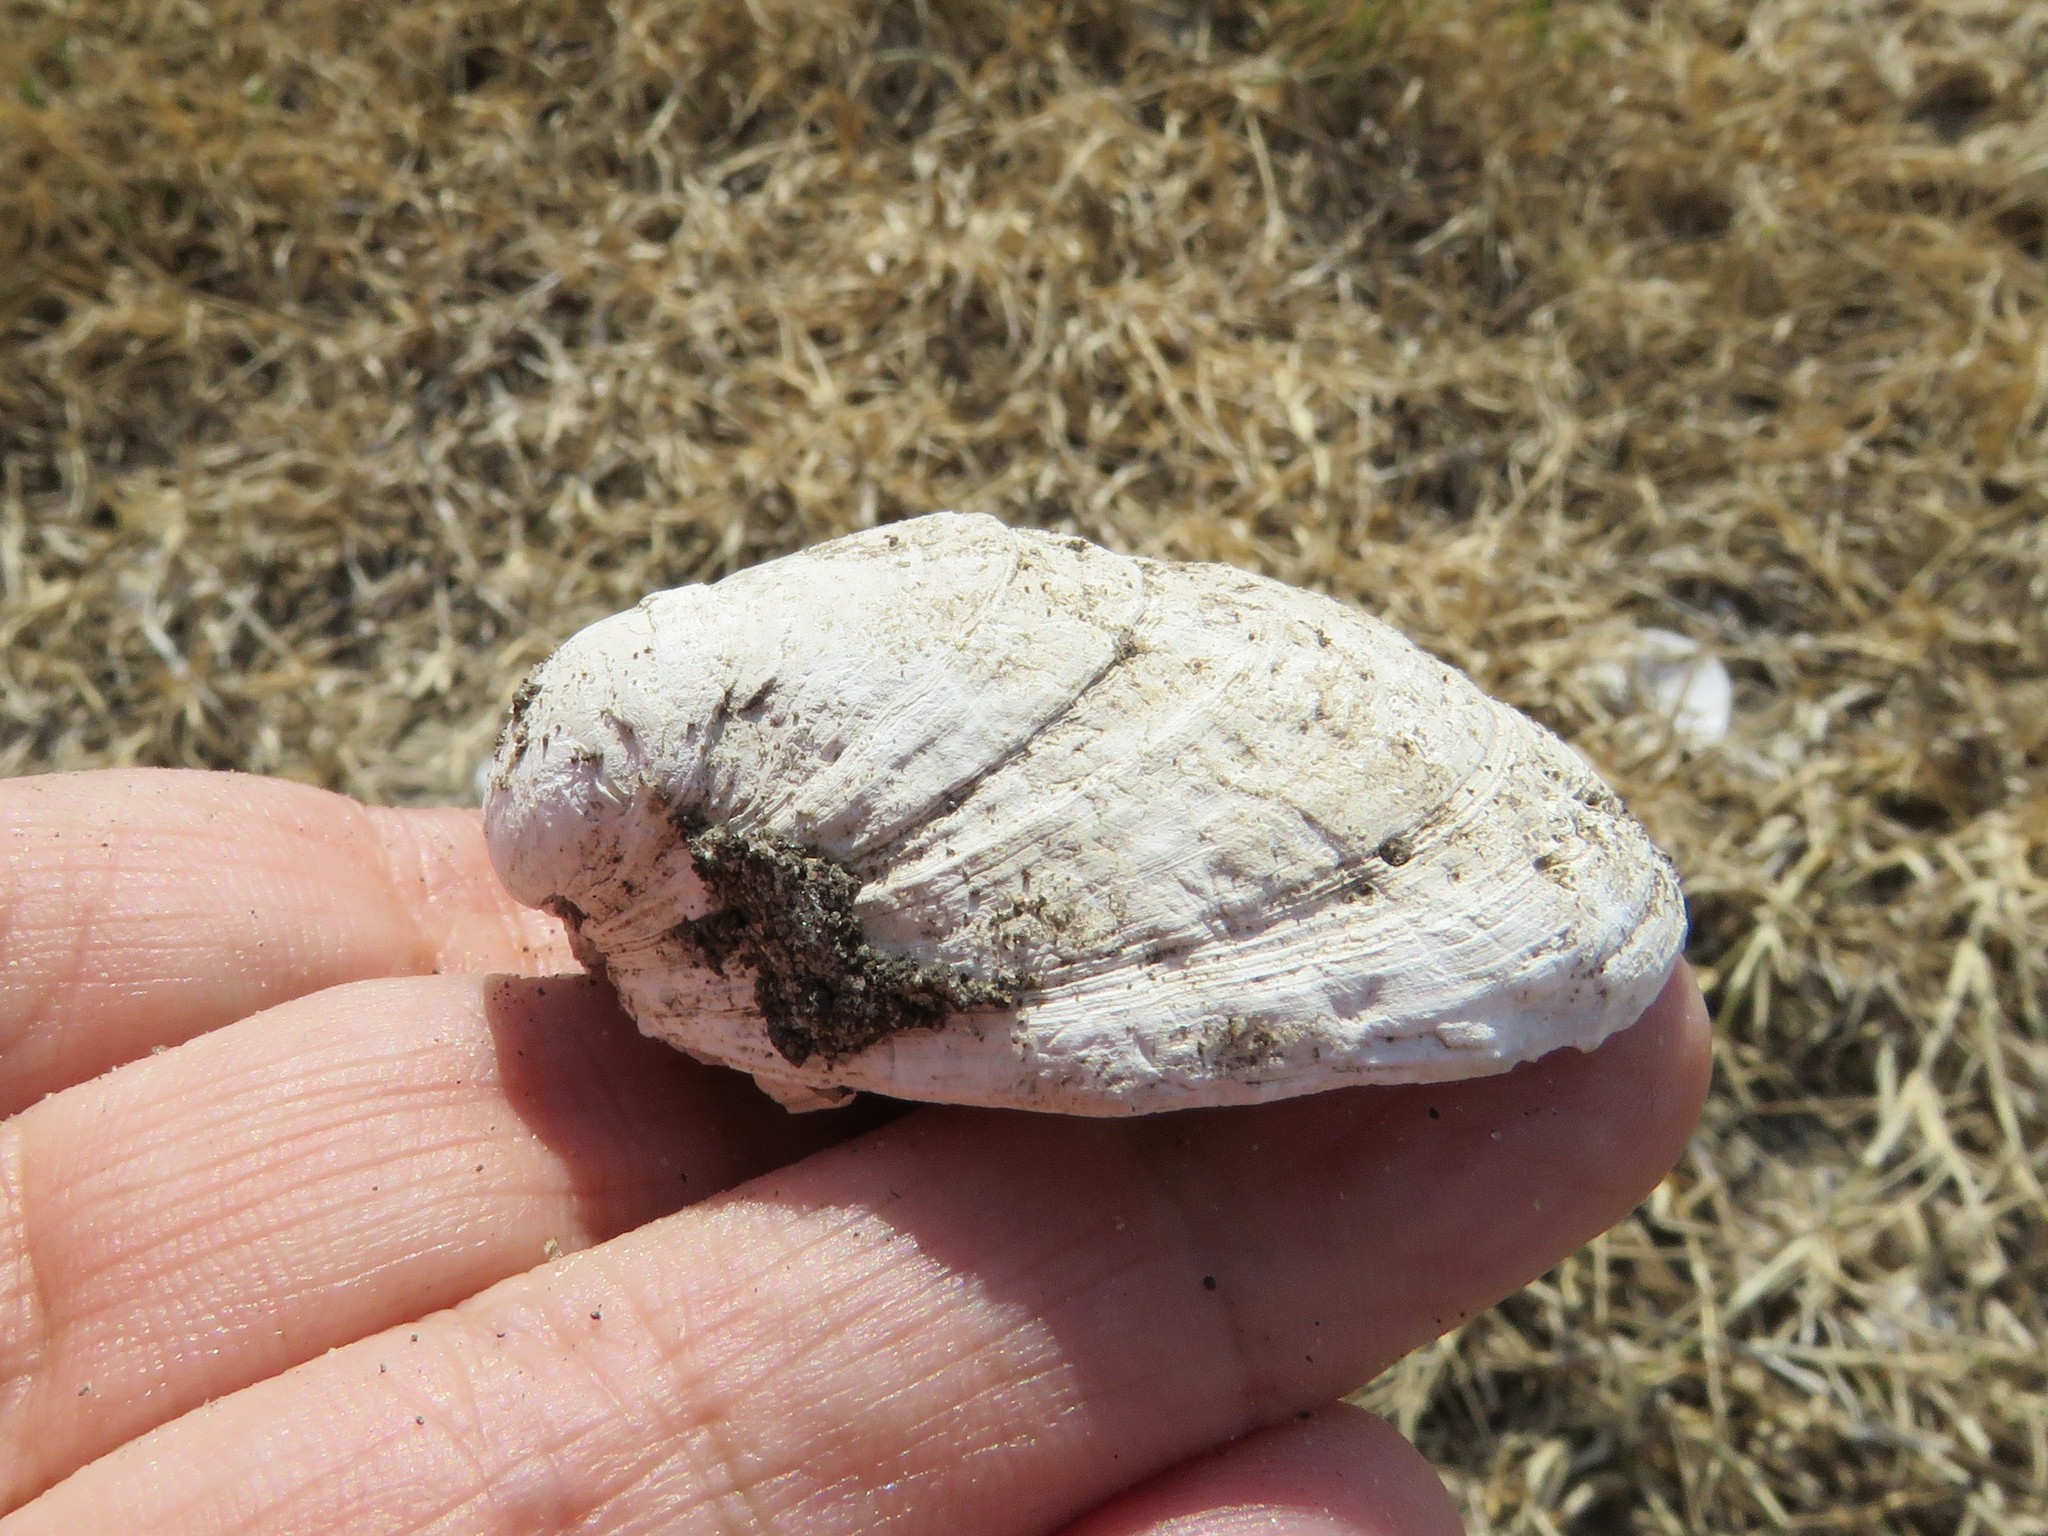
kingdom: Animalia
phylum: Mollusca
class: Bivalvia
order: Venerida
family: Mactridae
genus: Rangia
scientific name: Rangia cuneata
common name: Atlantic rangia
